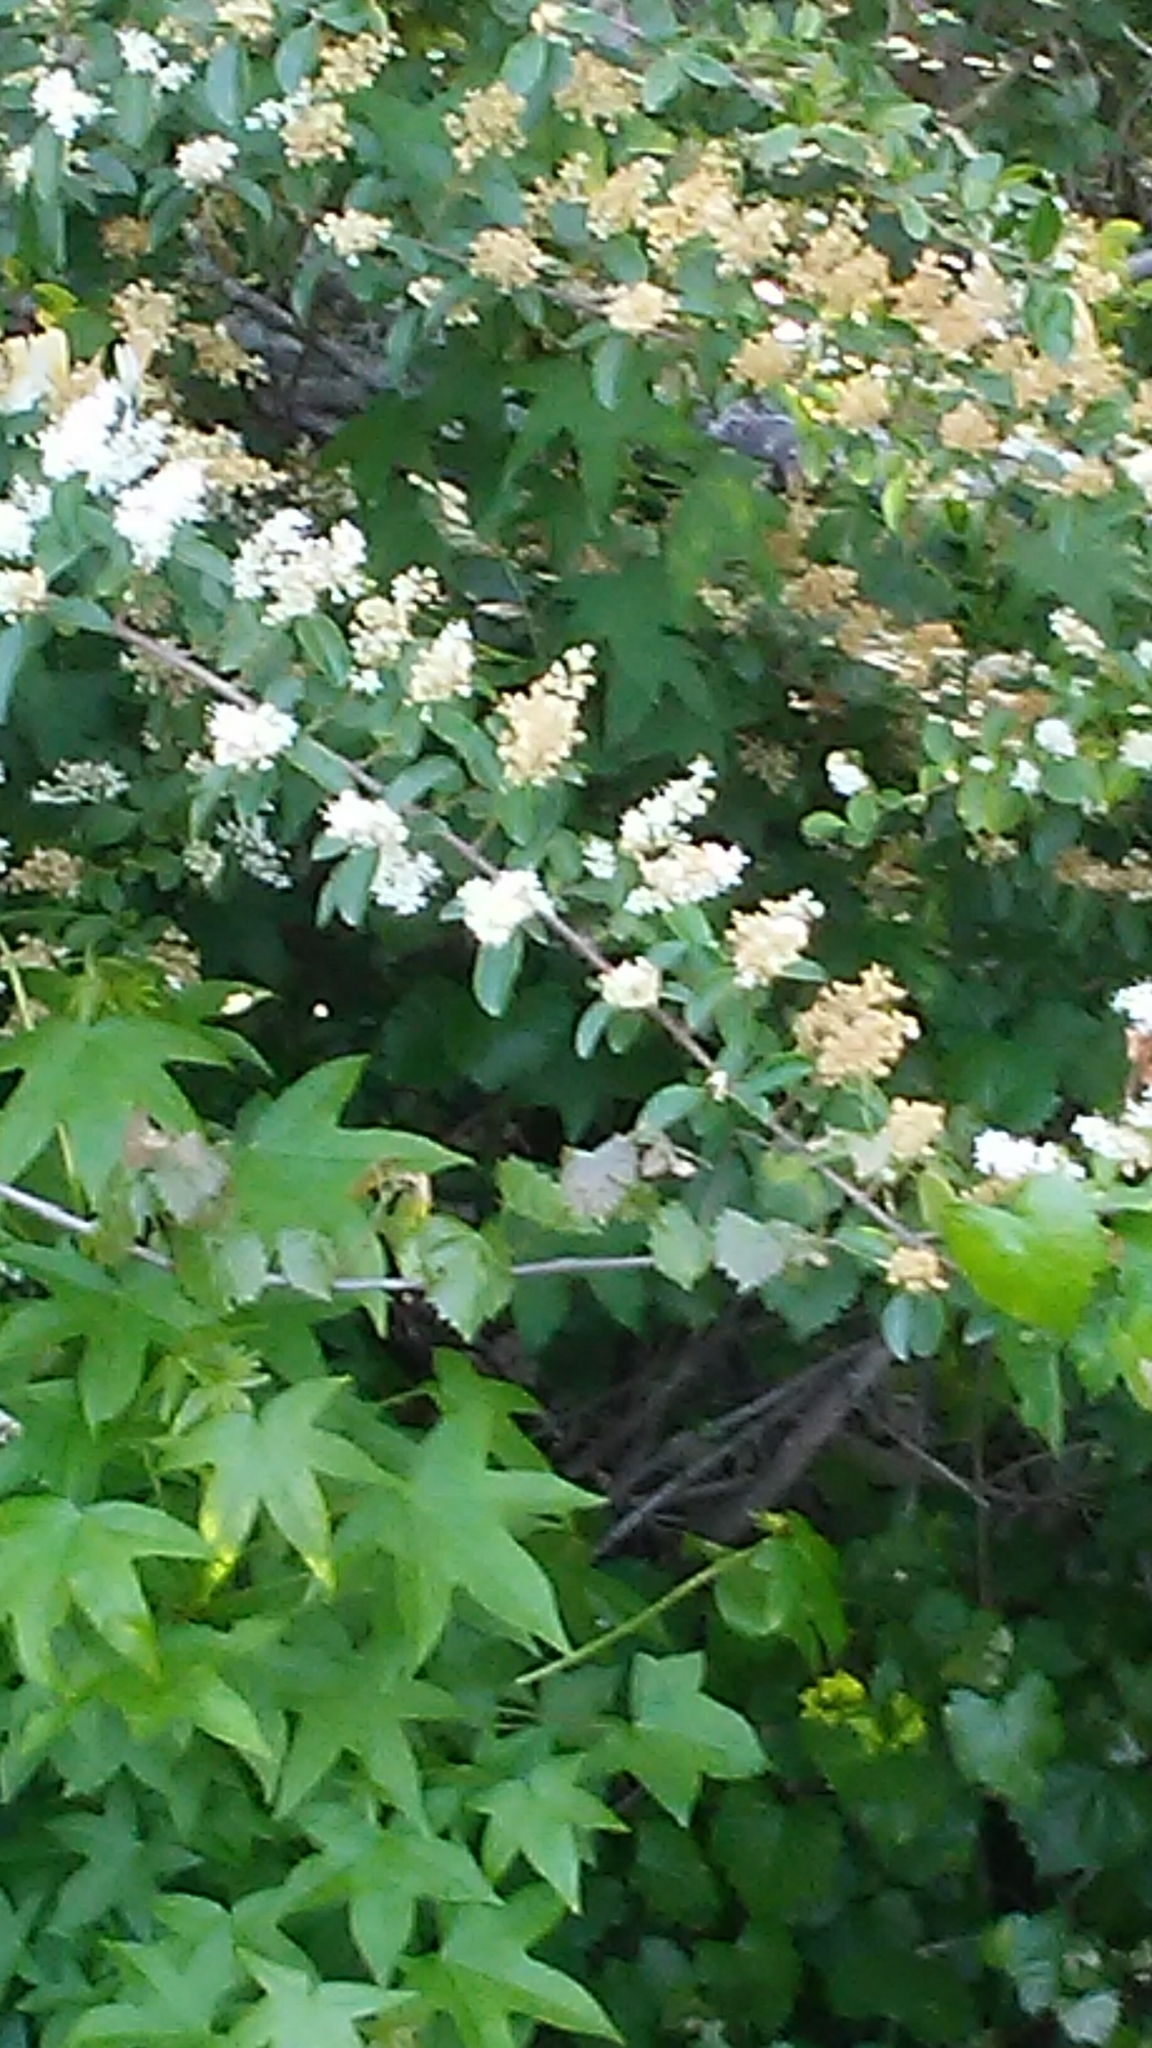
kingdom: Plantae
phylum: Tracheophyta
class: Magnoliopsida
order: Lamiales
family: Oleaceae
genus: Ligustrum
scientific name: Ligustrum sinense
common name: Chinese privet
